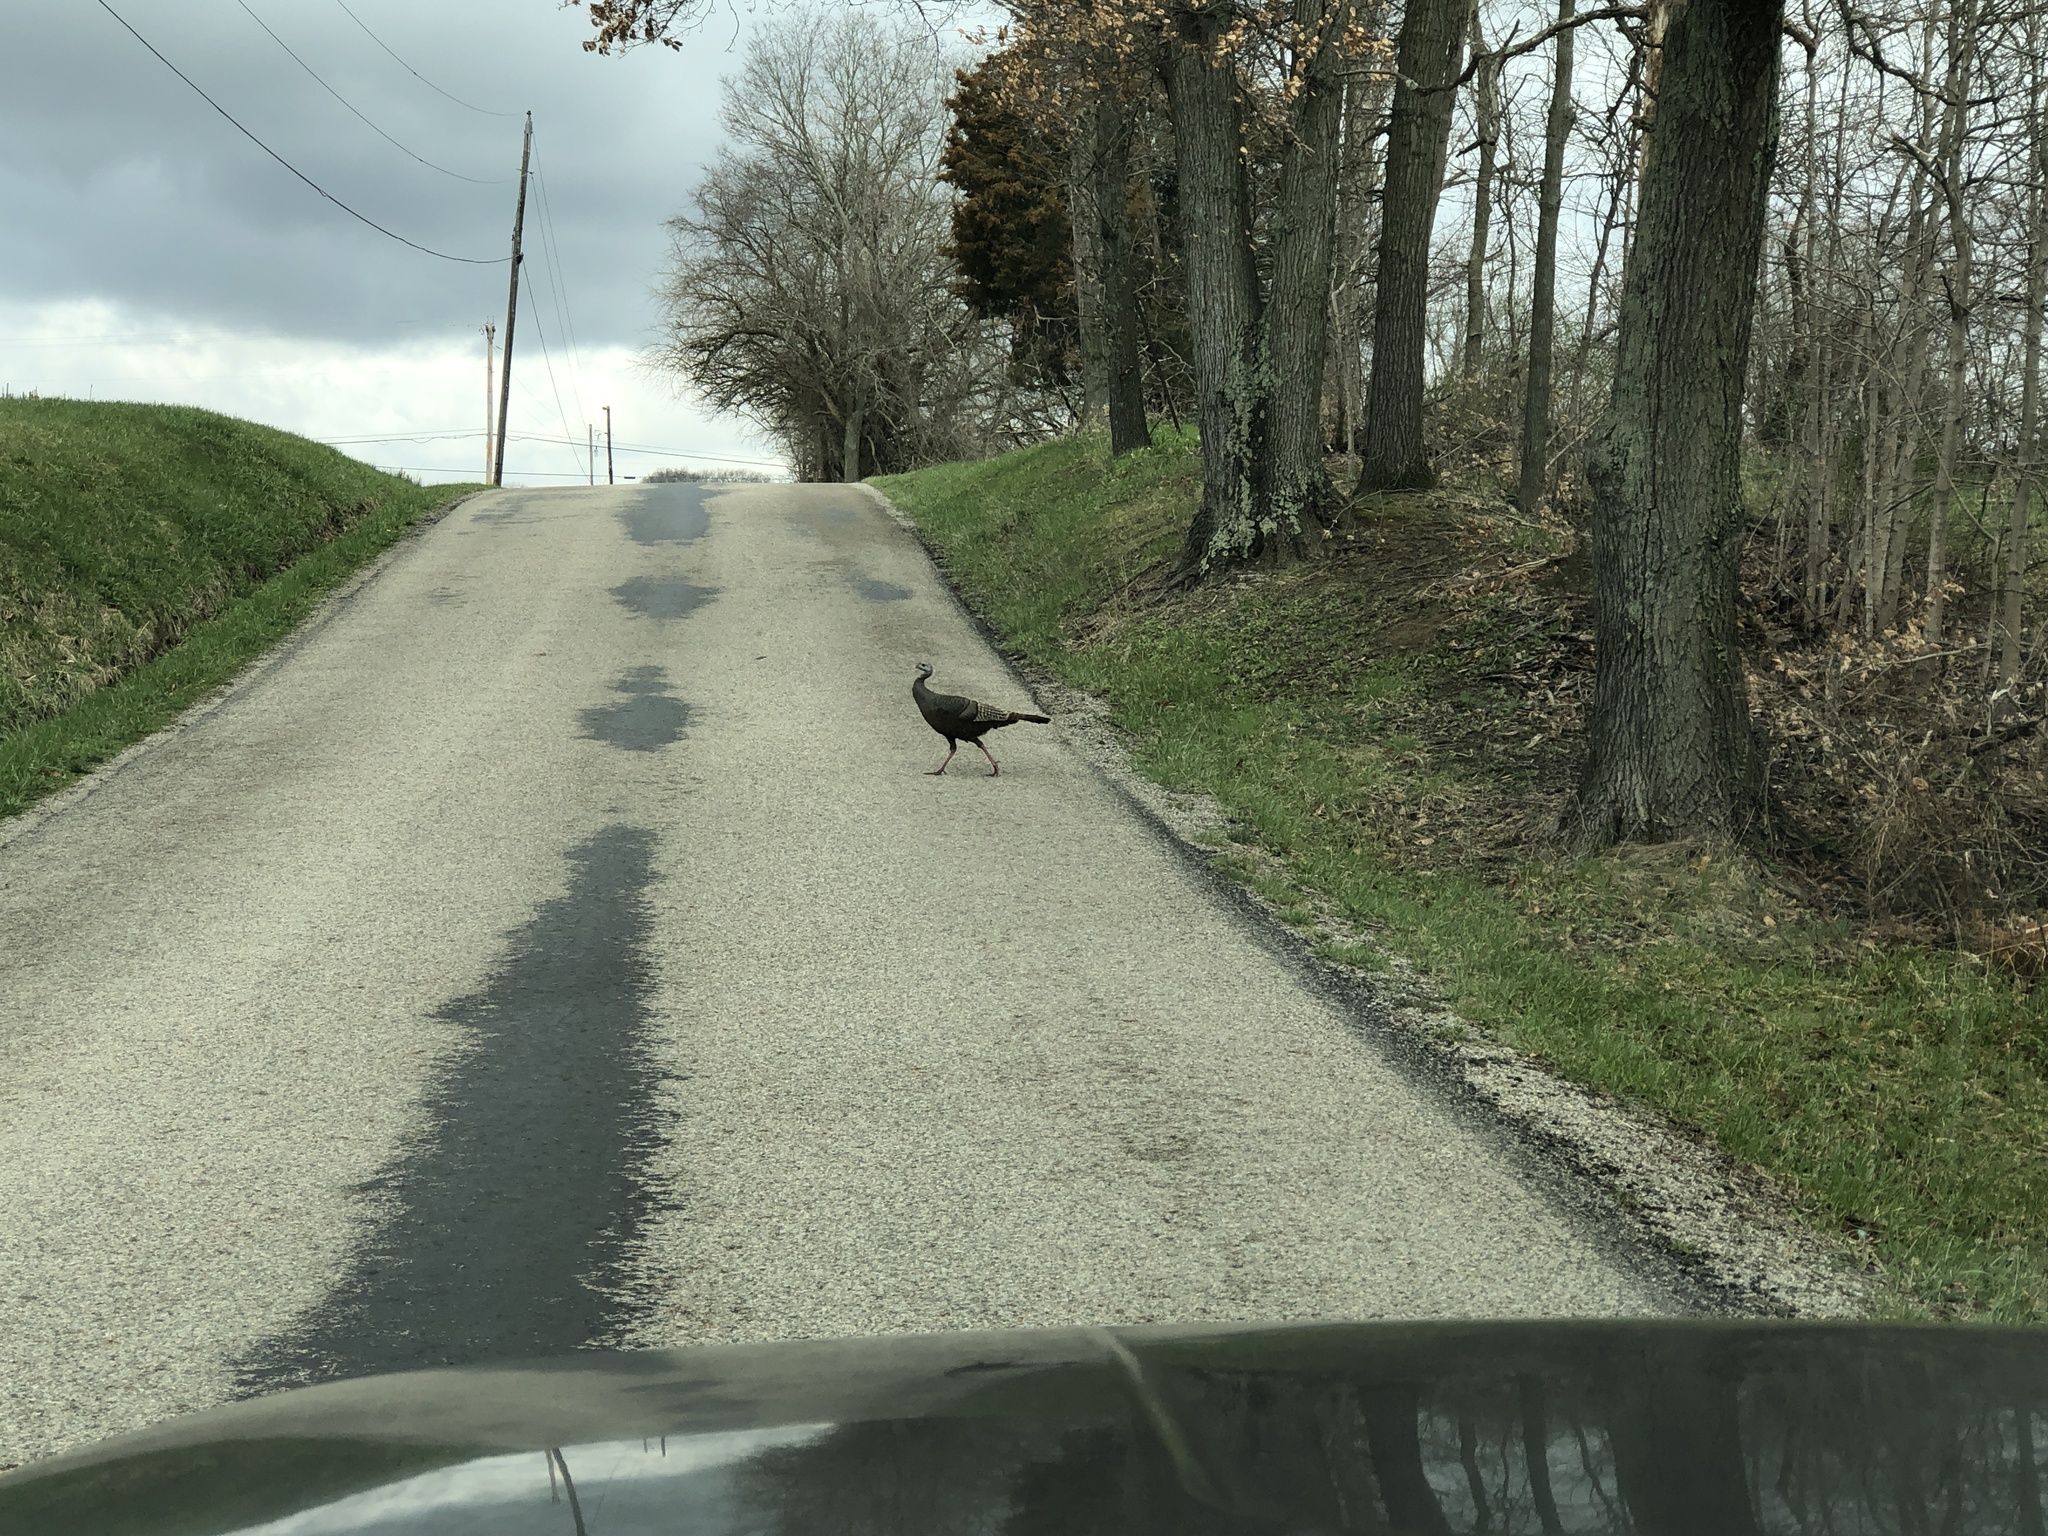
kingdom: Animalia
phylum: Chordata
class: Aves
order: Galliformes
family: Phasianidae
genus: Meleagris
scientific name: Meleagris gallopavo
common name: Wild turkey
